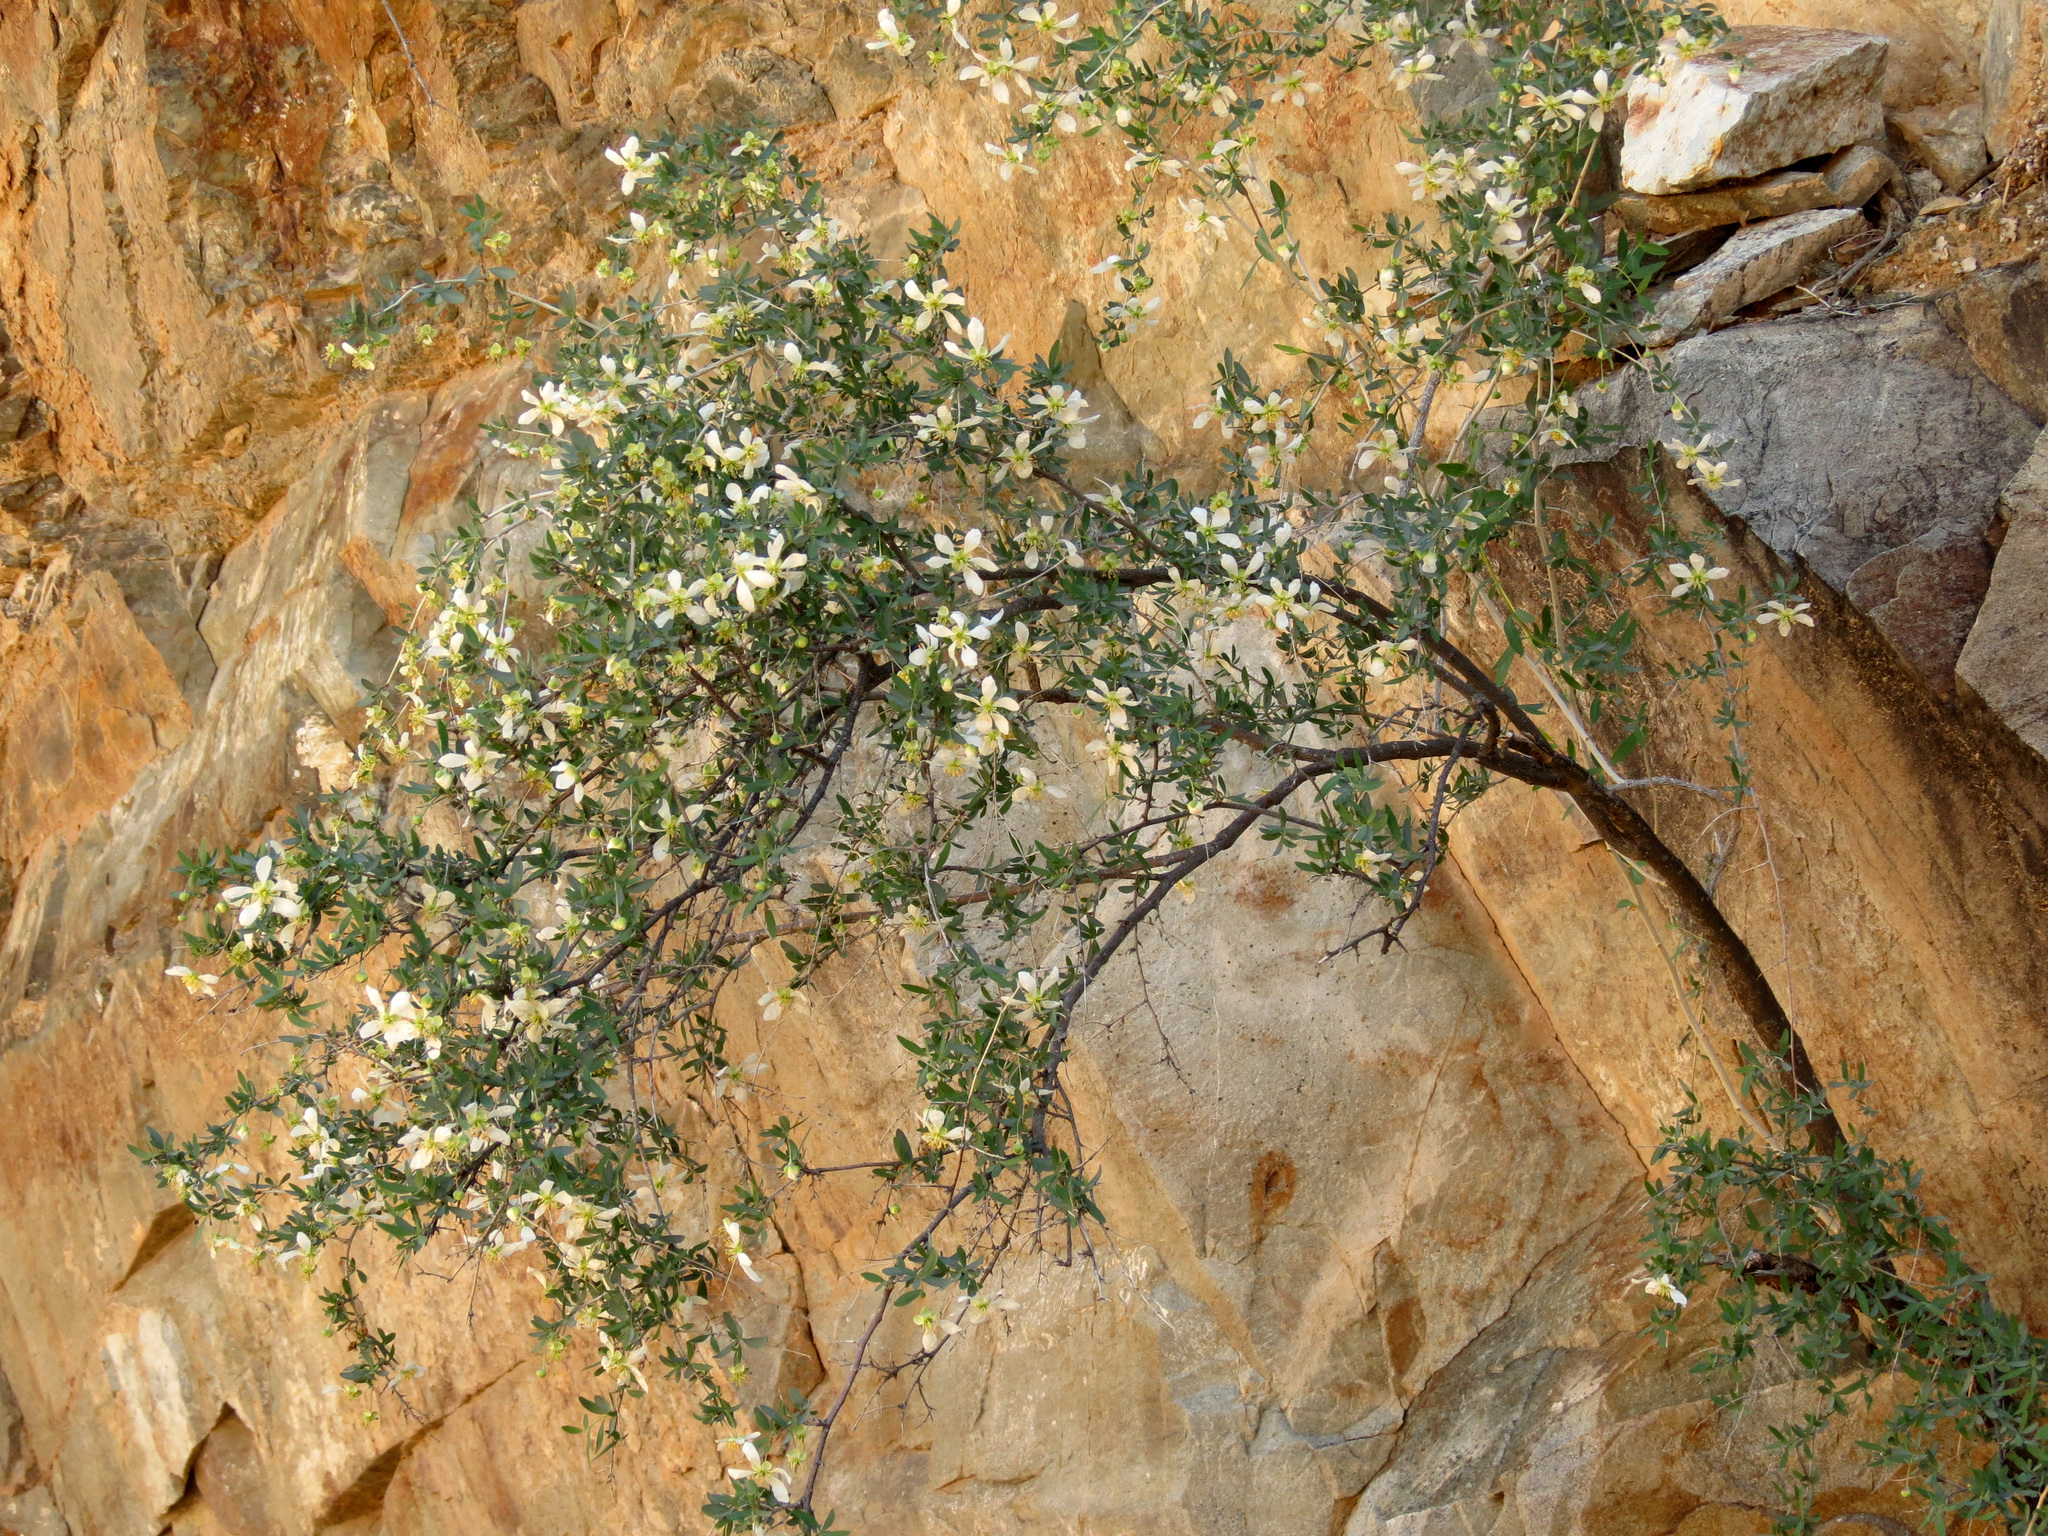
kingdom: Plantae
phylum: Tracheophyta
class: Magnoliopsida
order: Crossosomatales
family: Crossosomataceae
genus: Crossosoma
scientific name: Crossosoma bigelovii
